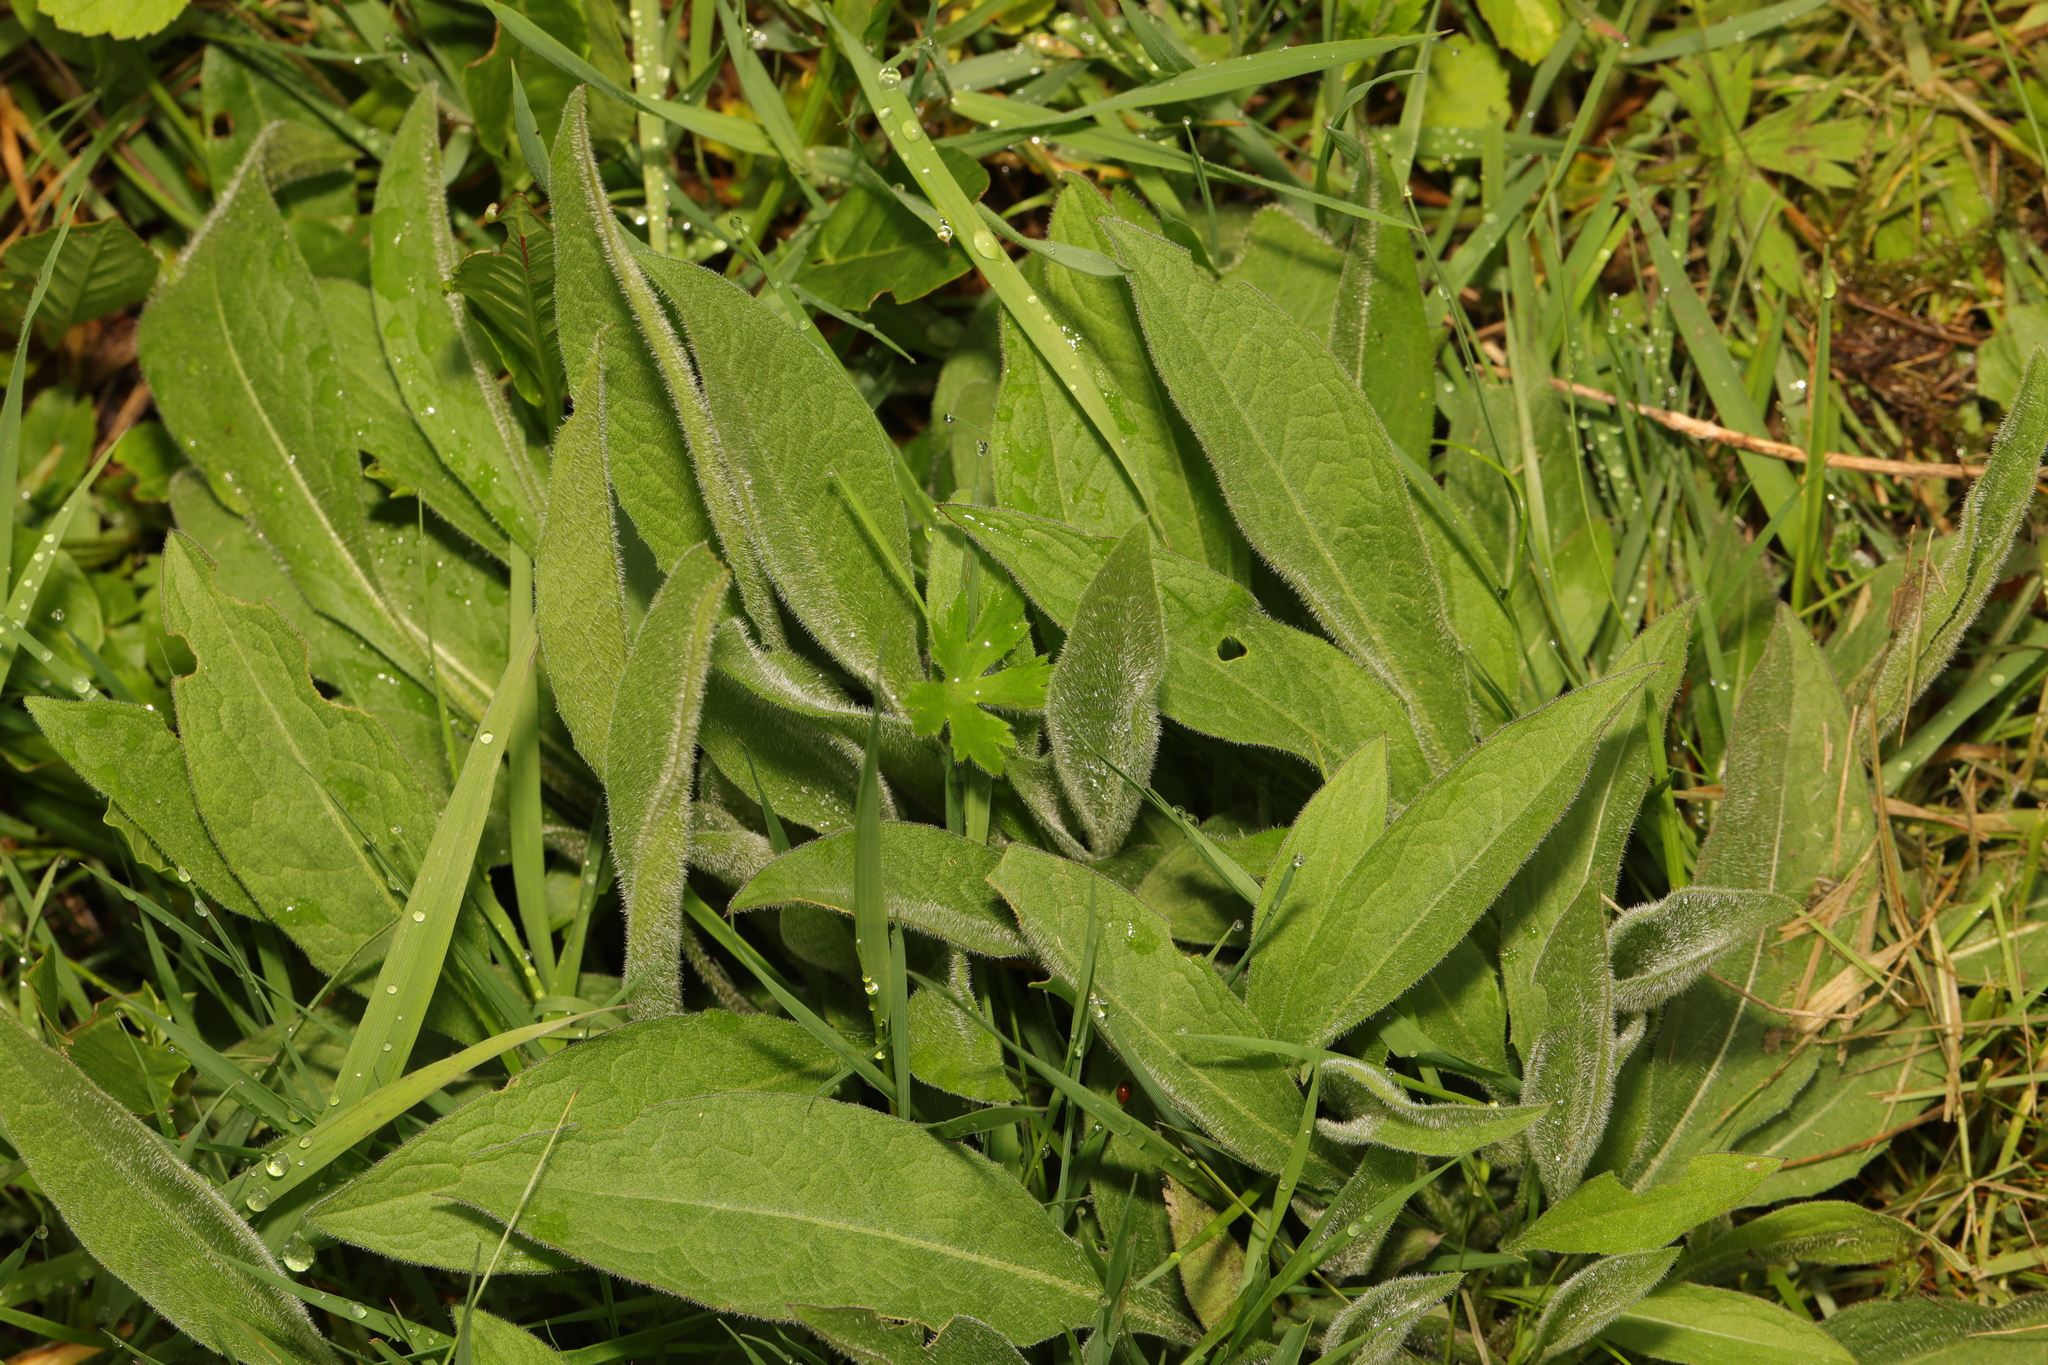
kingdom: Plantae
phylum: Tracheophyta
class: Magnoliopsida
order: Asterales
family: Asteraceae
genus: Centaurea
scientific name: Centaurea nigra
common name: Lesser knapweed
